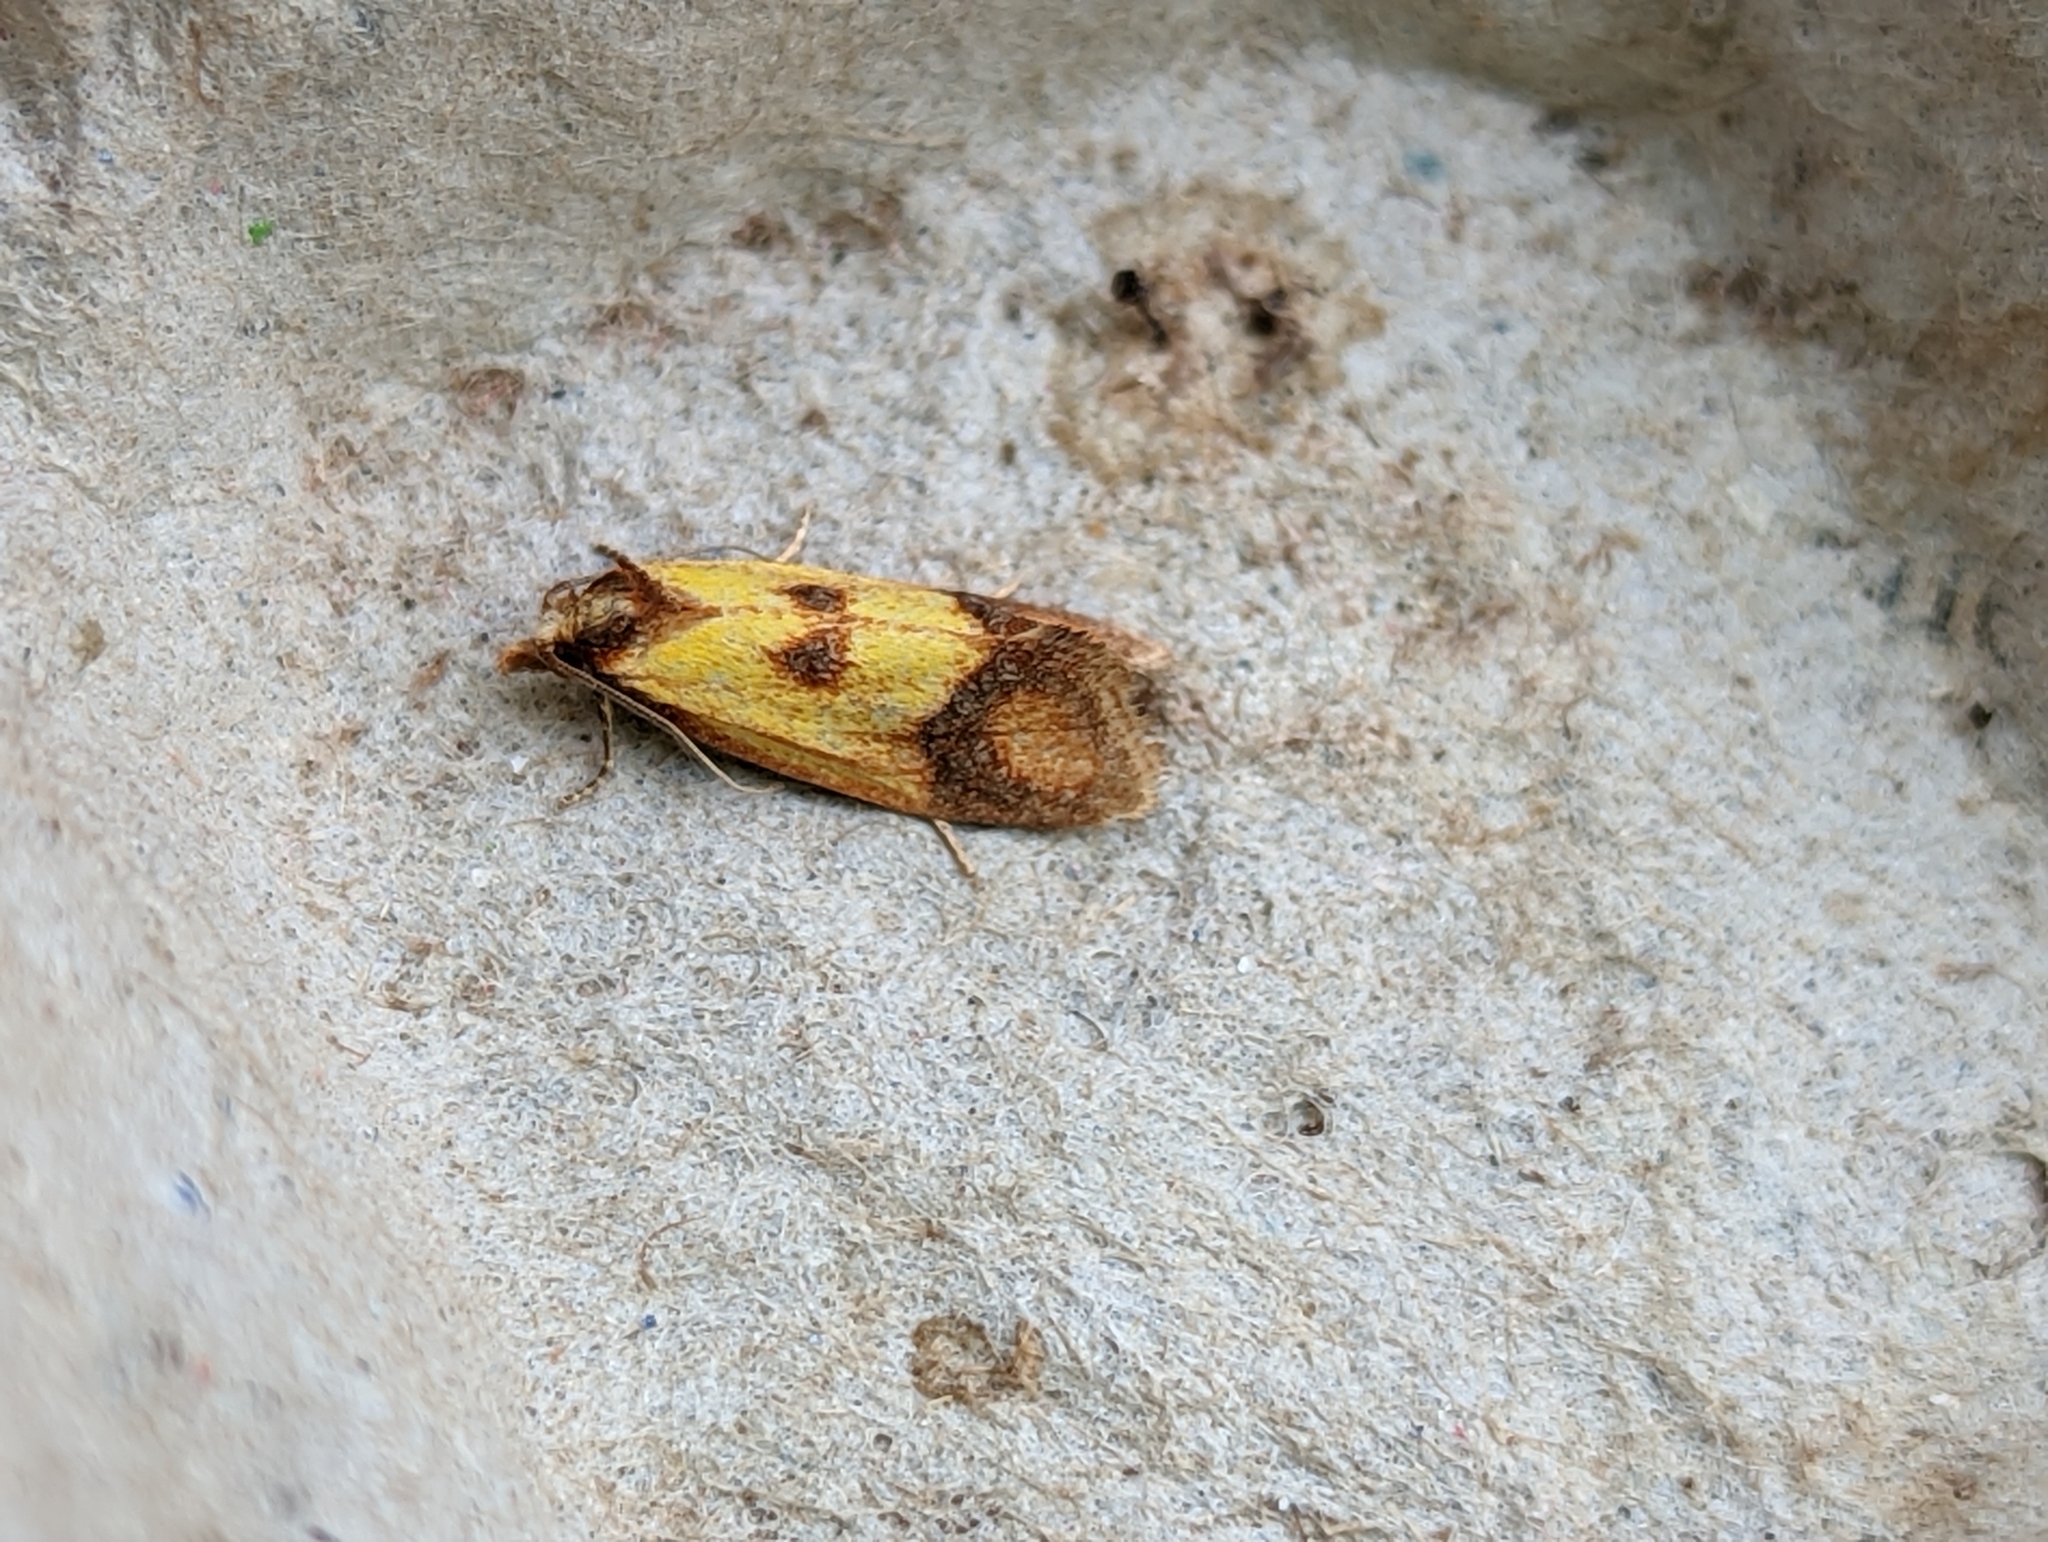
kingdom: Animalia
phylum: Arthropoda
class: Insecta
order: Lepidoptera
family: Tortricidae
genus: Agapeta
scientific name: Agapeta zoegana
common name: Sulfur knapweed root moth
